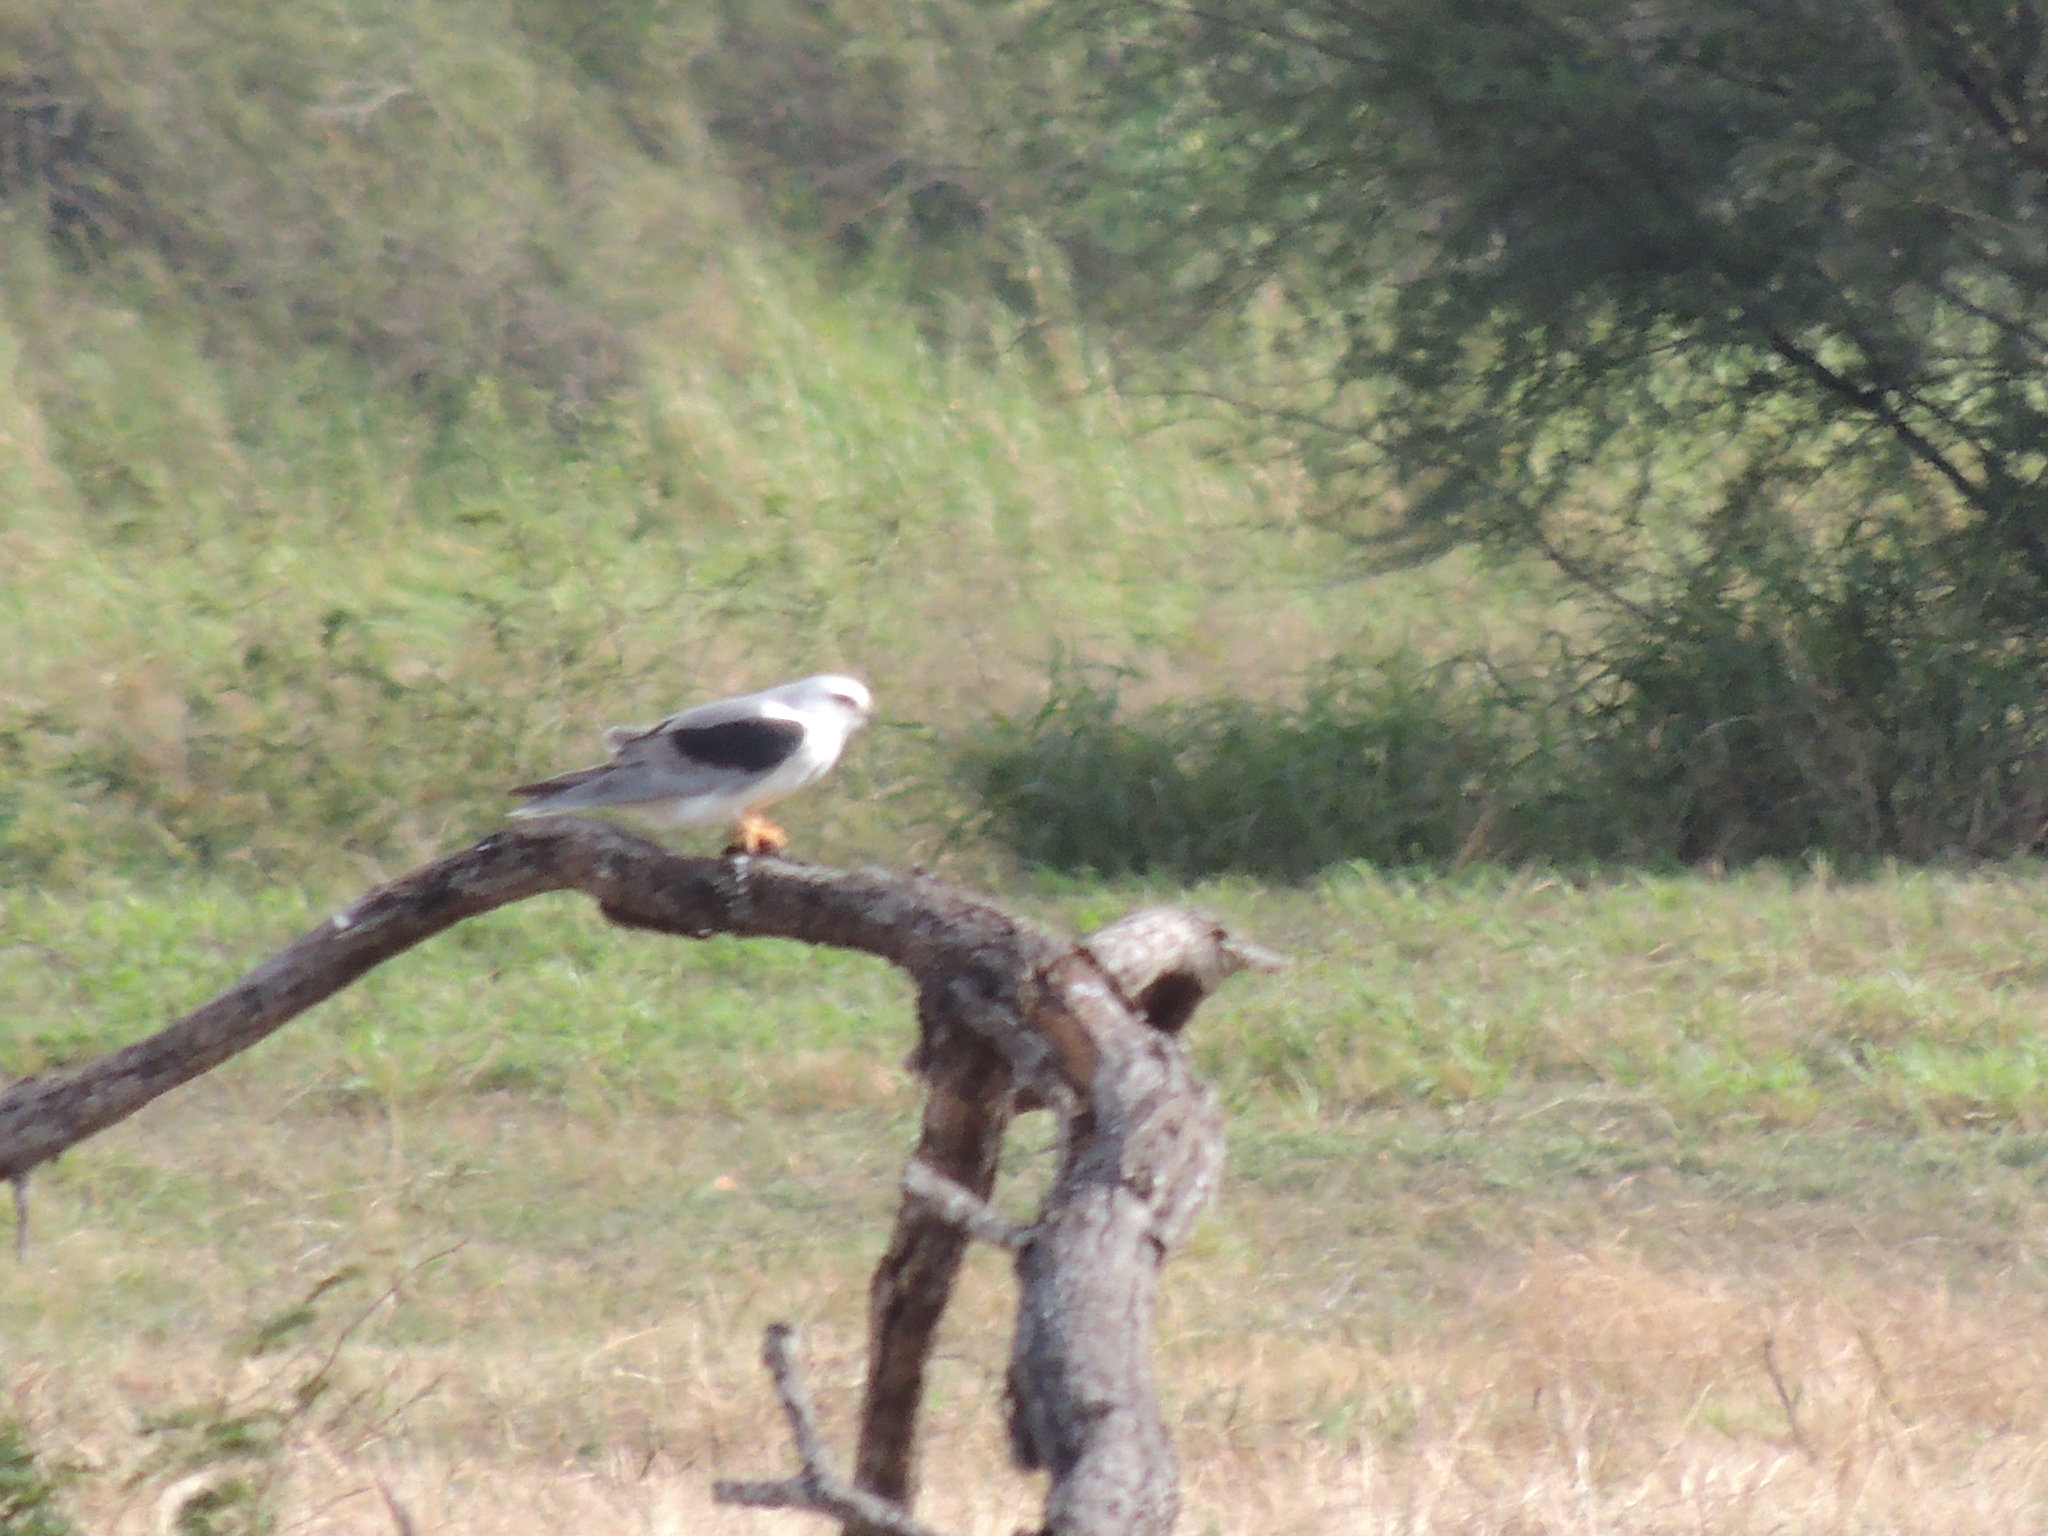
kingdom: Animalia
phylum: Chordata
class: Aves
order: Accipitriformes
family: Accipitridae
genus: Elanus
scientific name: Elanus leucurus
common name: White-tailed kite
